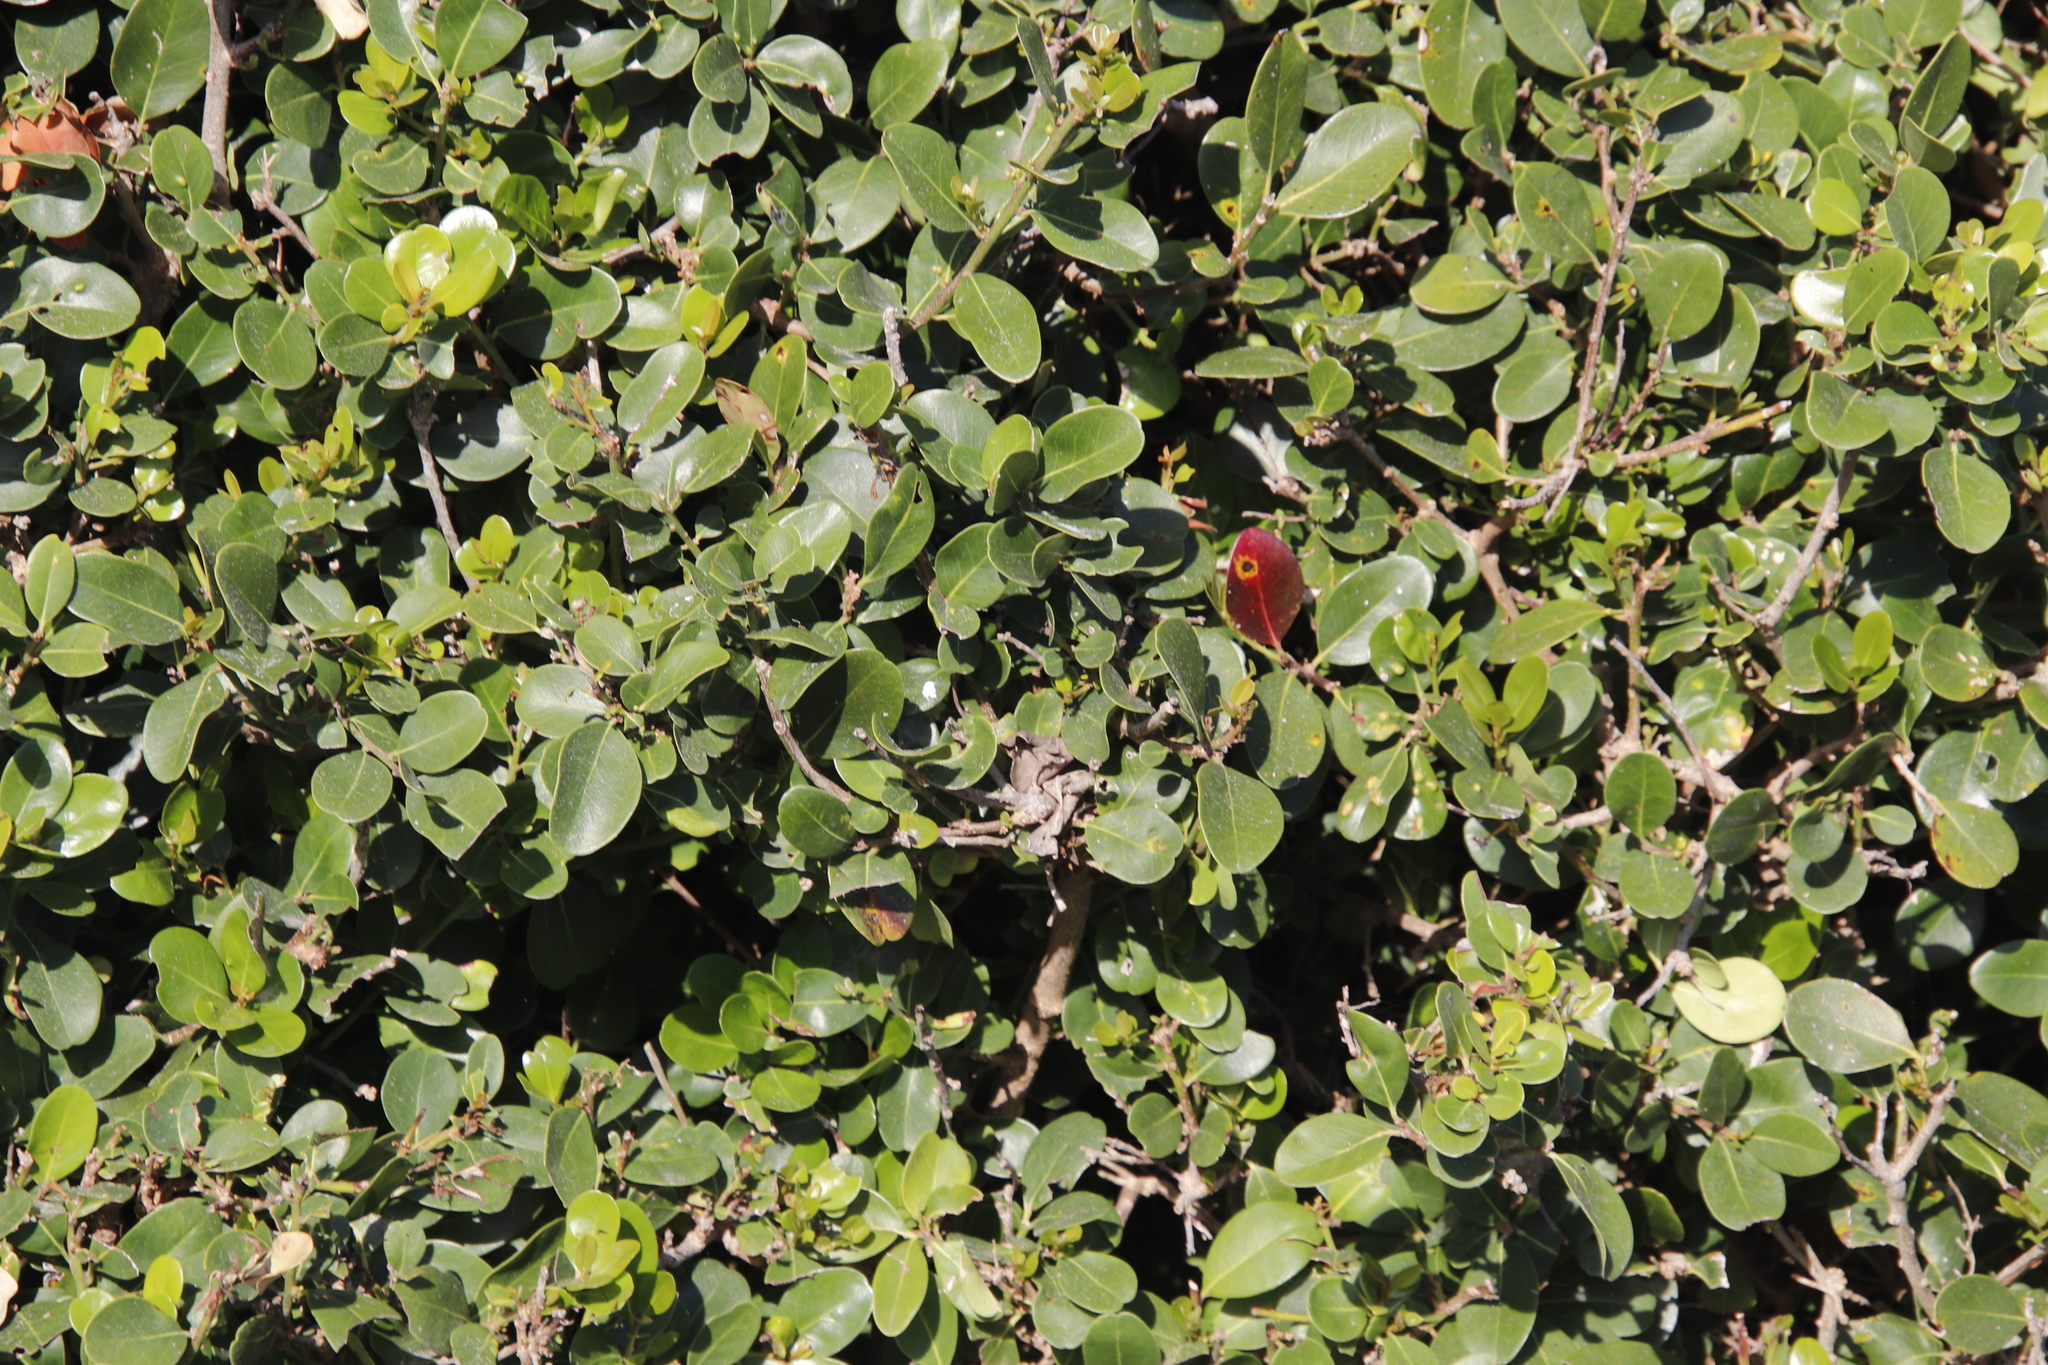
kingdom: Plantae
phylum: Tracheophyta
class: Magnoliopsida
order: Ericales
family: Sapotaceae
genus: Sideroxylon
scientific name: Sideroxylon inerme
